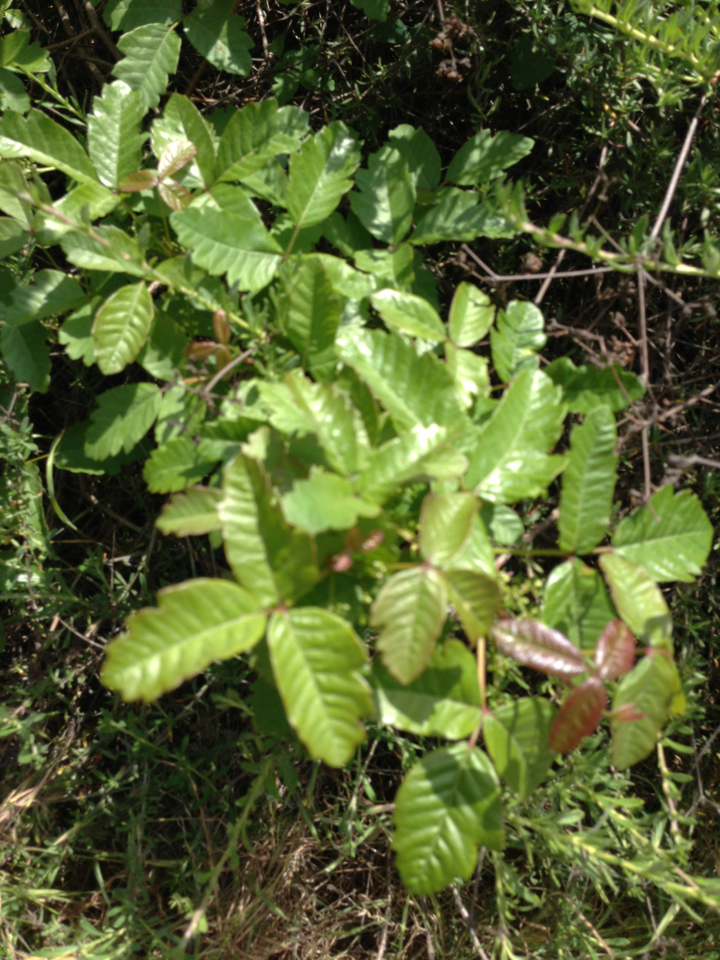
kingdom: Plantae
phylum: Tracheophyta
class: Magnoliopsida
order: Sapindales
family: Anacardiaceae
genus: Toxicodendron
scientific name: Toxicodendron diversilobum
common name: Pacific poison-oak
